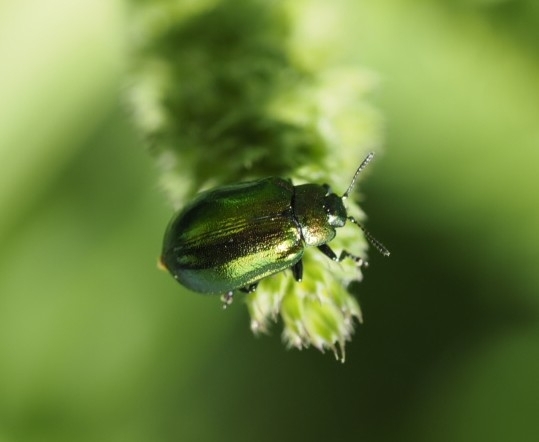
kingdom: Animalia
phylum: Arthropoda
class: Insecta
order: Coleoptera
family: Chrysomelidae
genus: Plagiosterna
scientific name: Plagiosterna aenea
